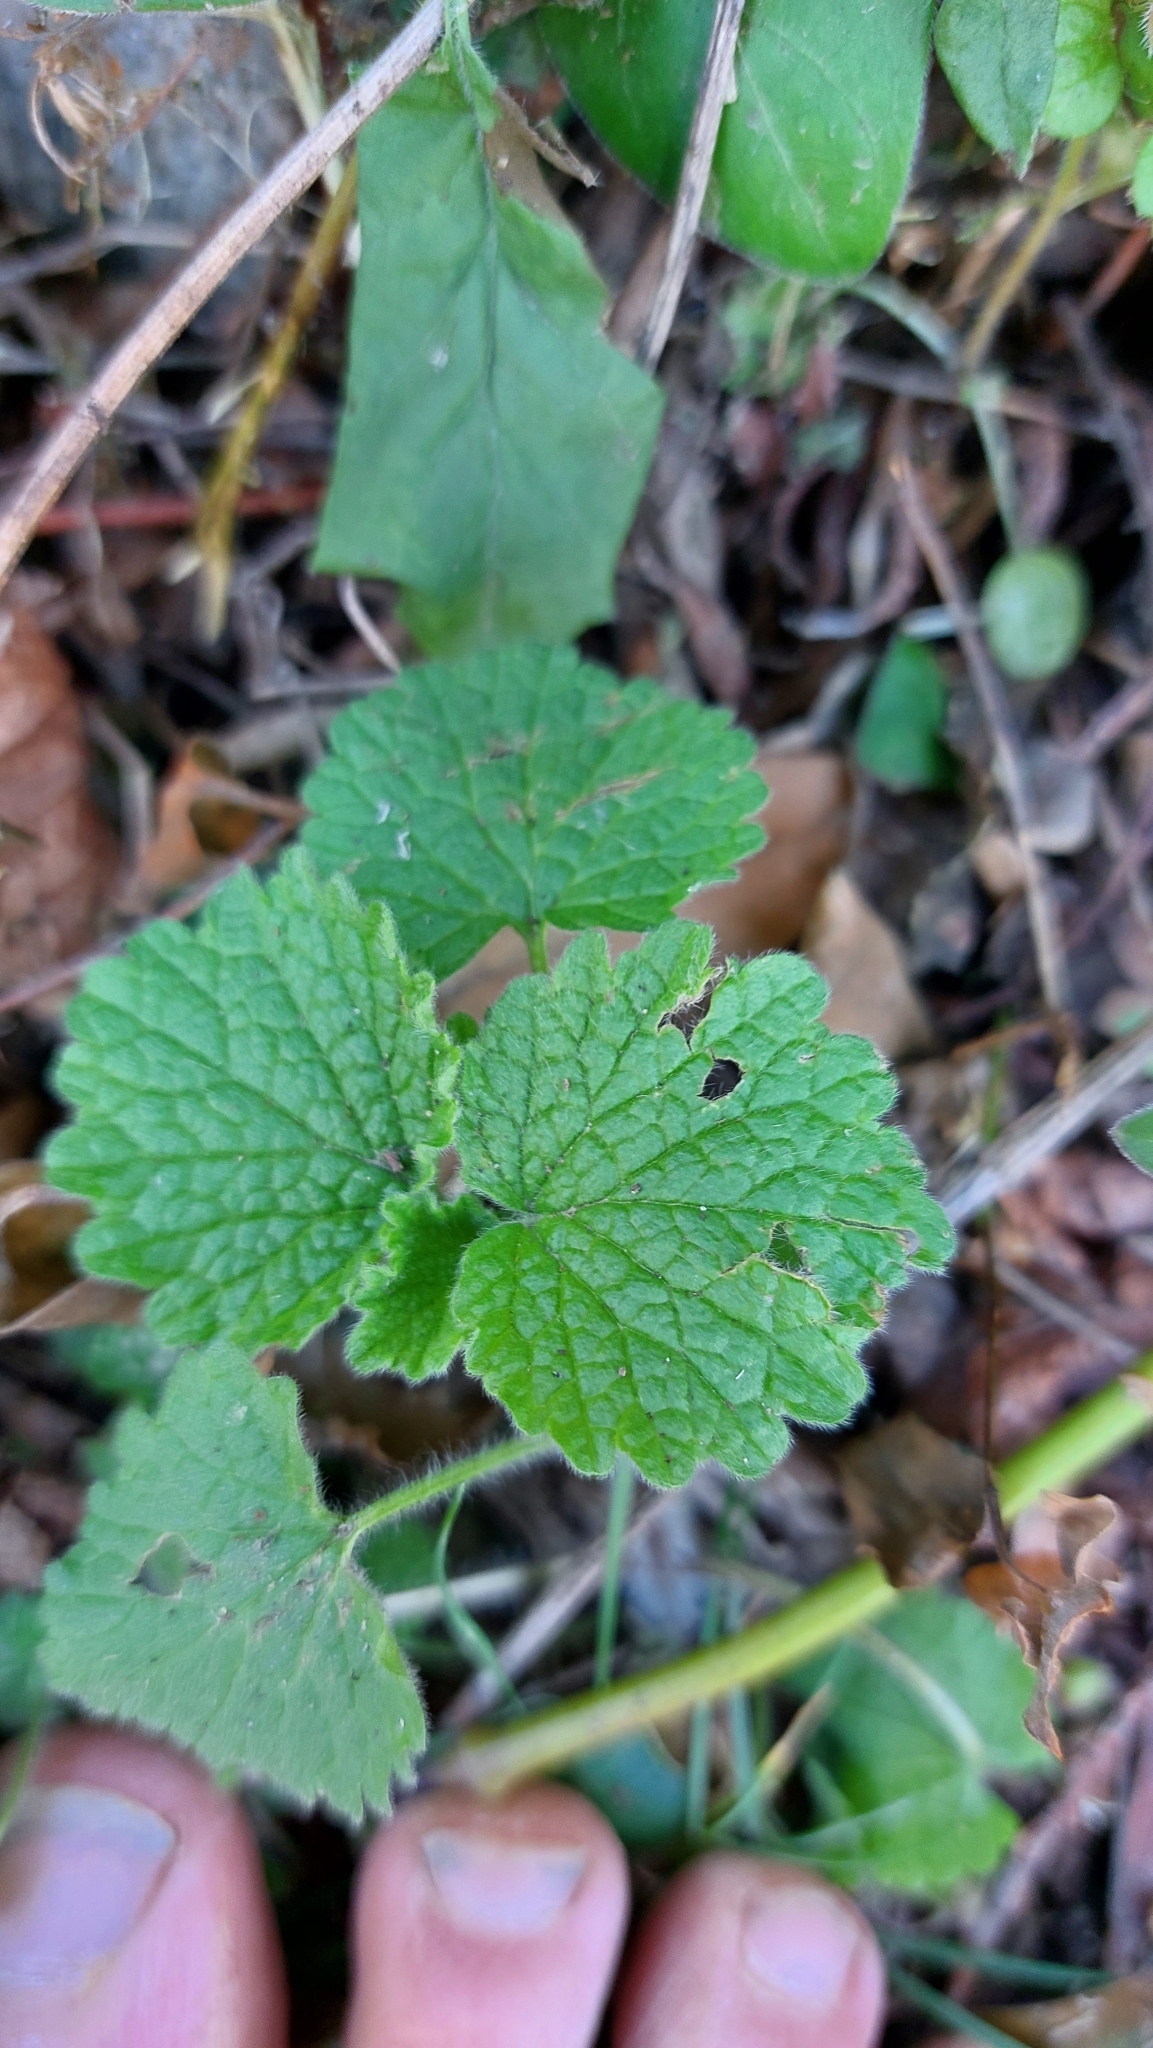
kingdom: Plantae
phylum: Tracheophyta
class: Magnoliopsida
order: Lamiales
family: Lamiaceae
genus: Ballota
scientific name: Ballota nigra
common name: Black horehound
